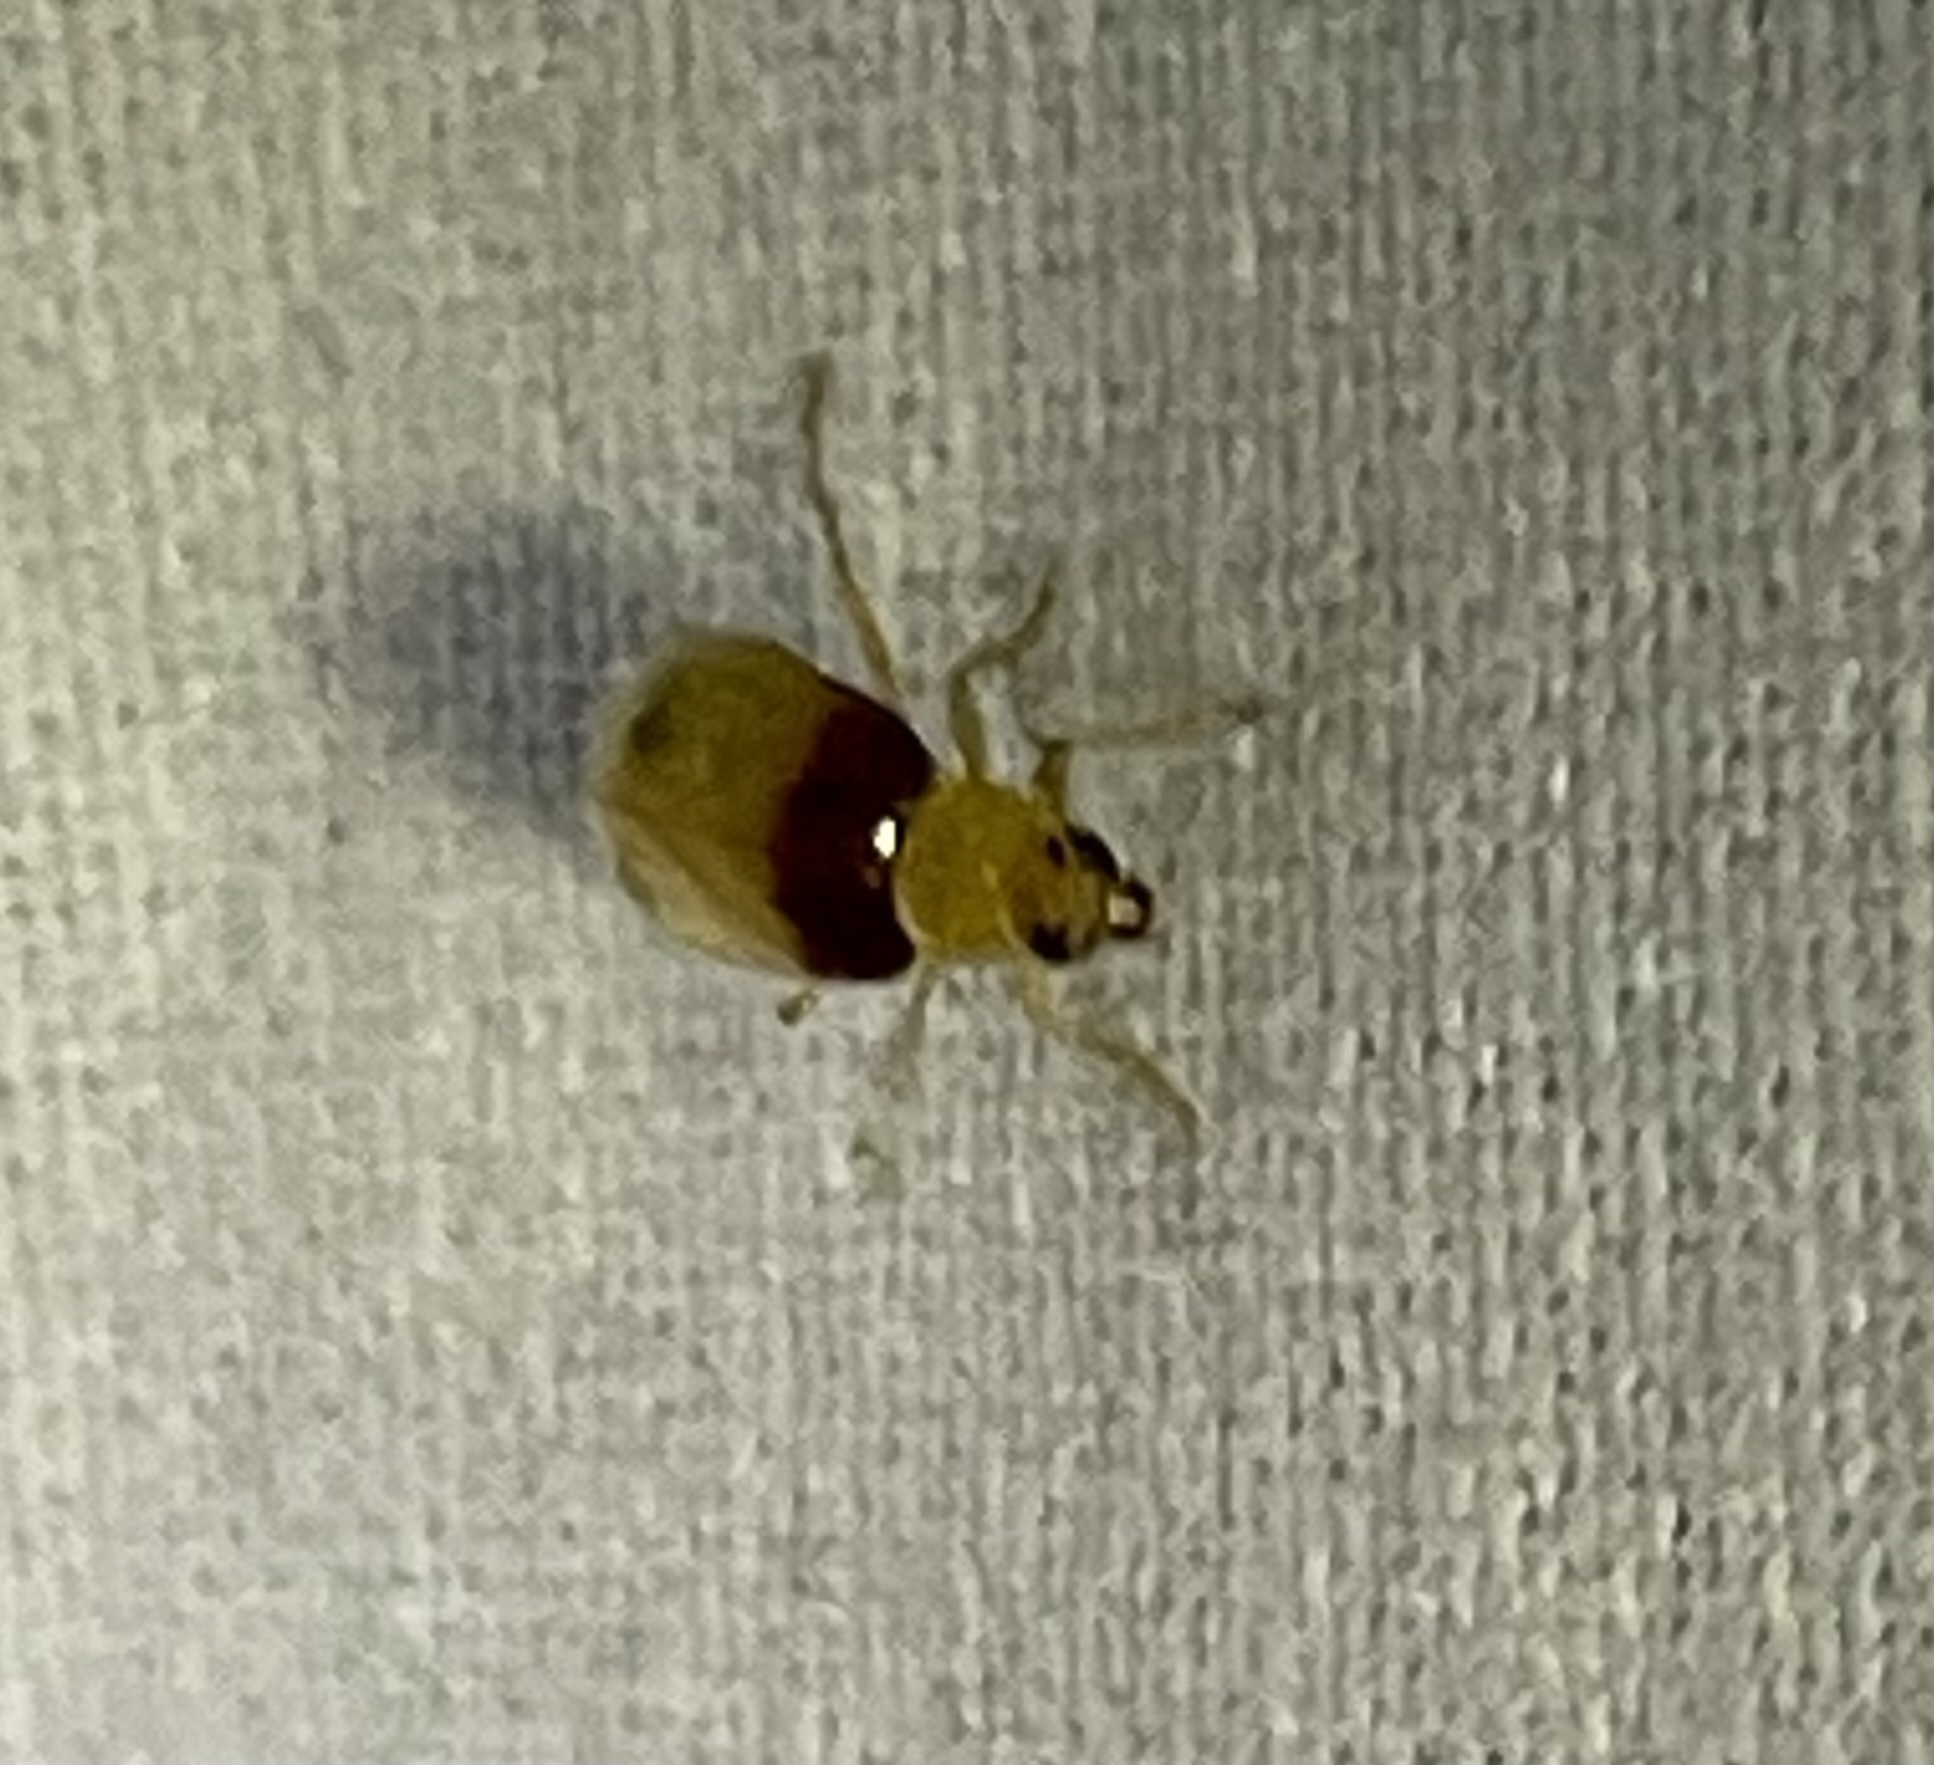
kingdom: Animalia
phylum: Arthropoda
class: Insecta
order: Coleoptera
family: Chrysomelidae
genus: Monolepta
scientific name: Monolepta
